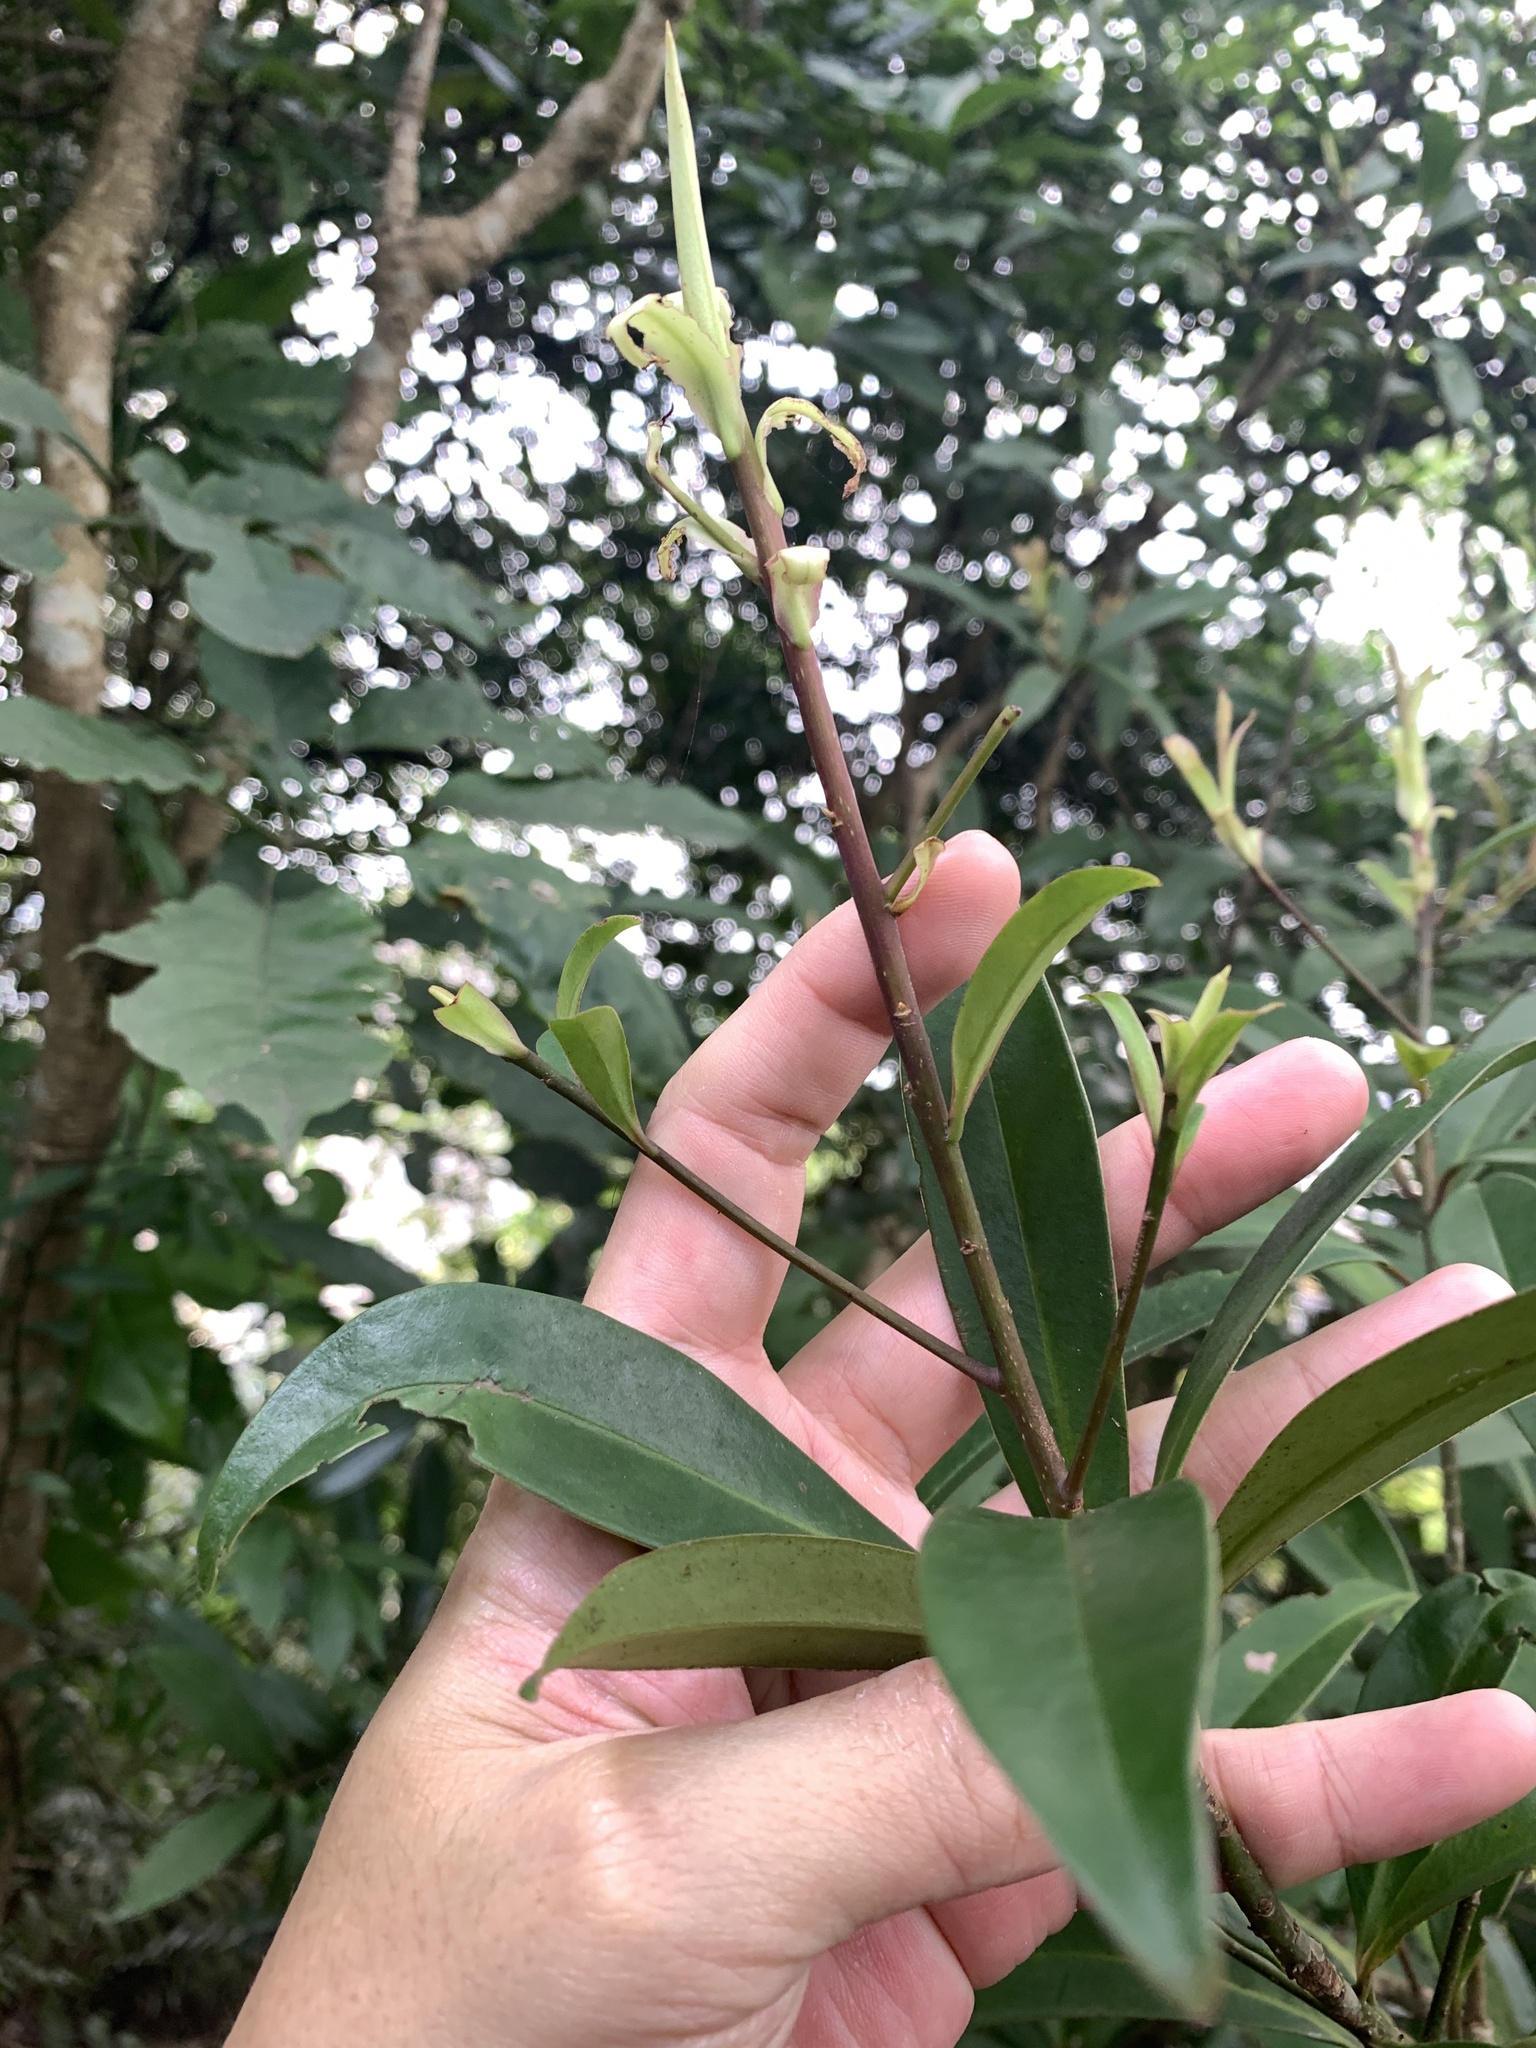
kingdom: Plantae
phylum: Tracheophyta
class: Magnoliopsida
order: Ericales
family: Primulaceae
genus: Myrsine
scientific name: Myrsine seguinii
